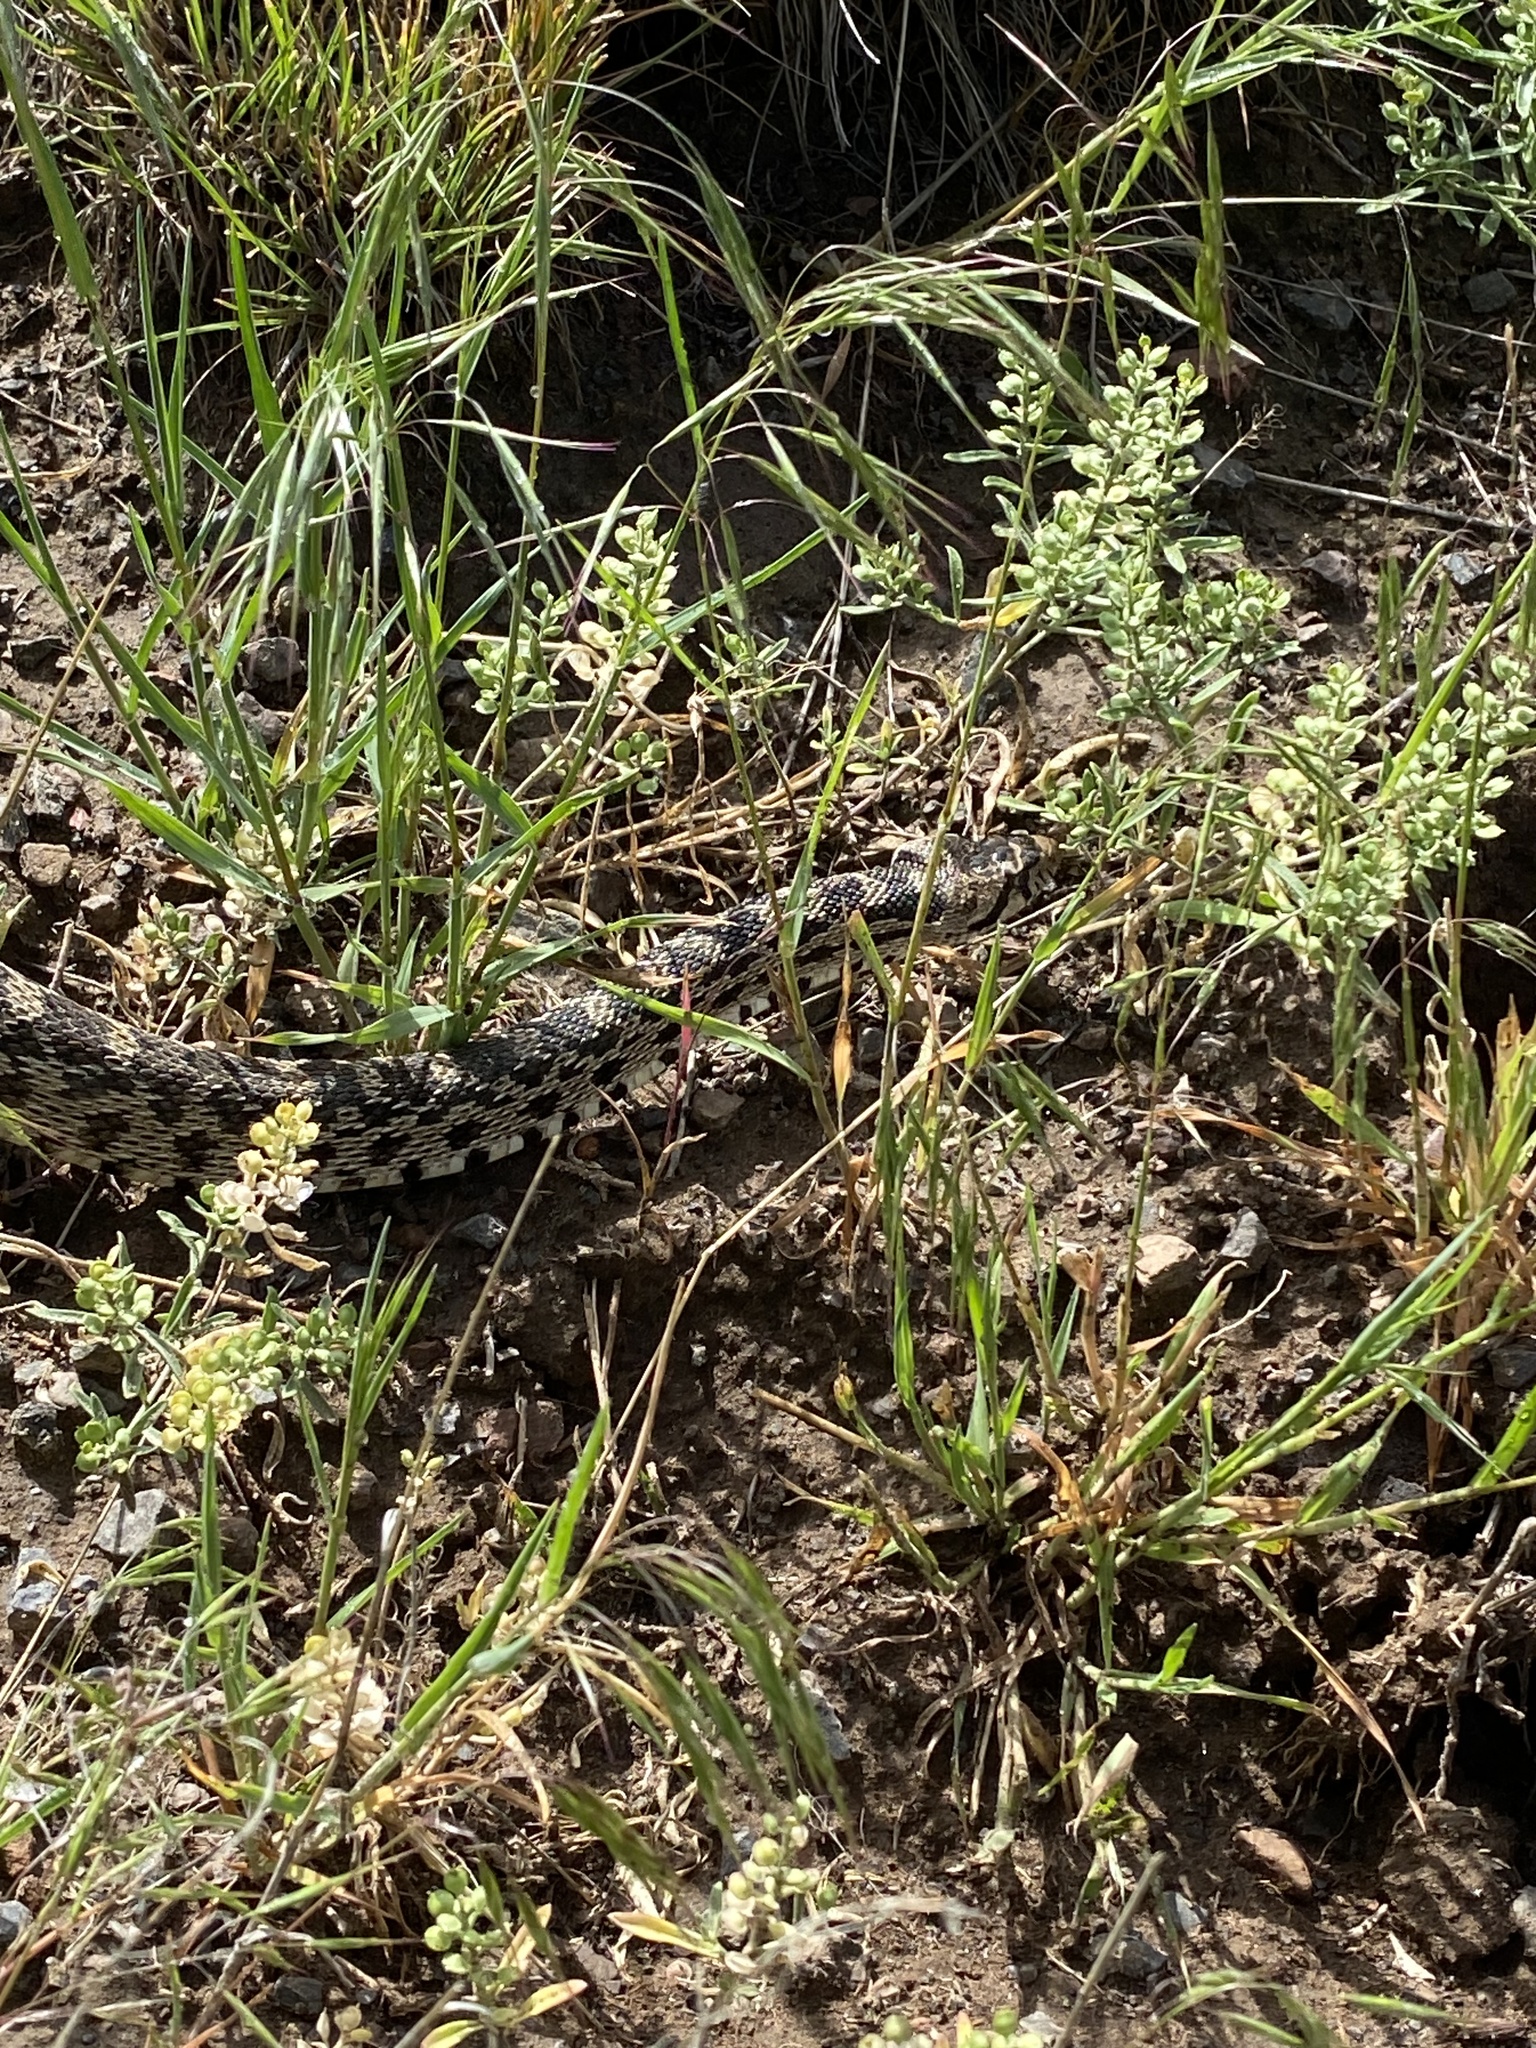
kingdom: Animalia
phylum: Chordata
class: Squamata
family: Colubridae
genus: Pituophis
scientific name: Pituophis catenifer
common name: Gopher snake
